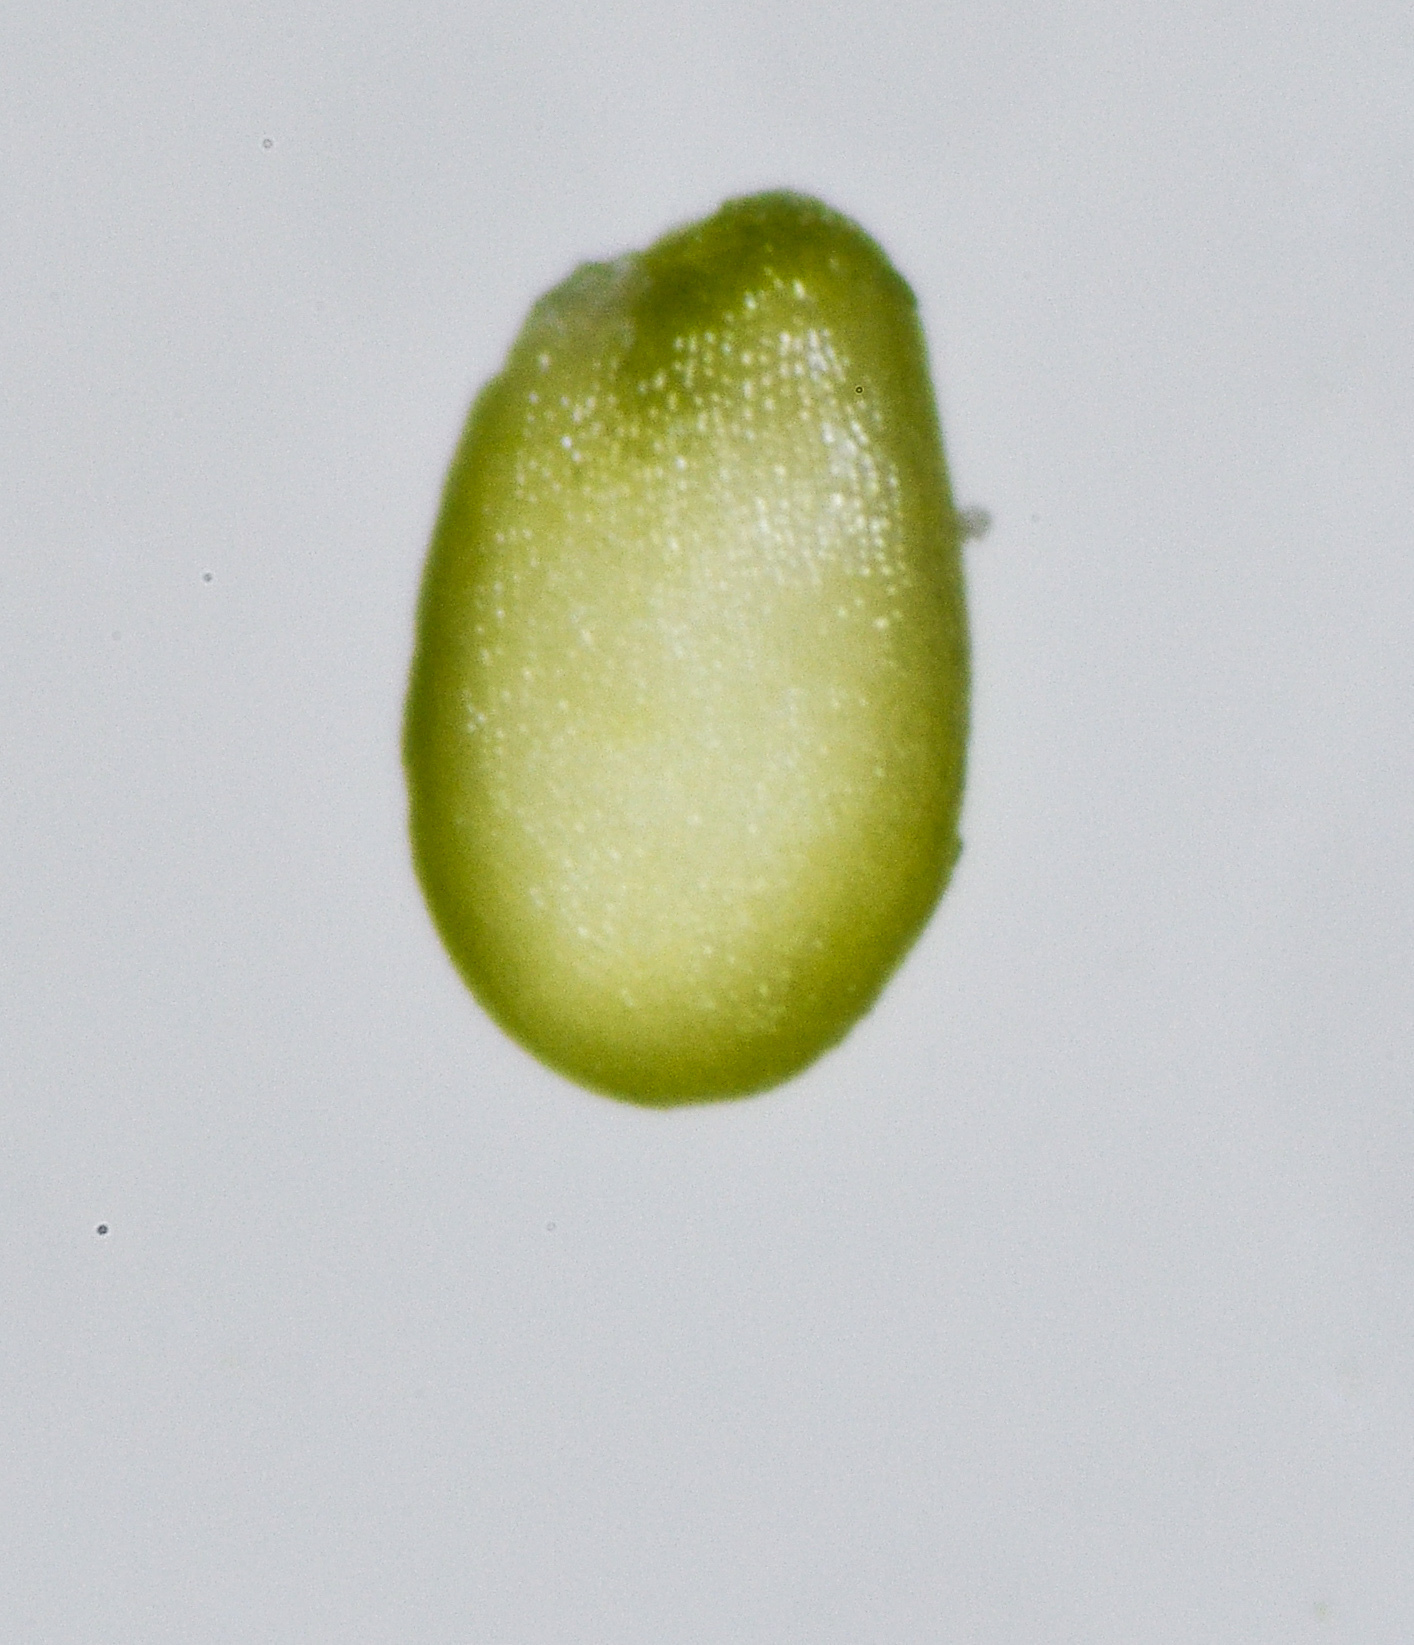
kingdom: Plantae
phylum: Tracheophyta
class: Magnoliopsida
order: Brassicales
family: Brassicaceae
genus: Cardamine
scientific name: Cardamine hirsuta
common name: Hairy bittercress
